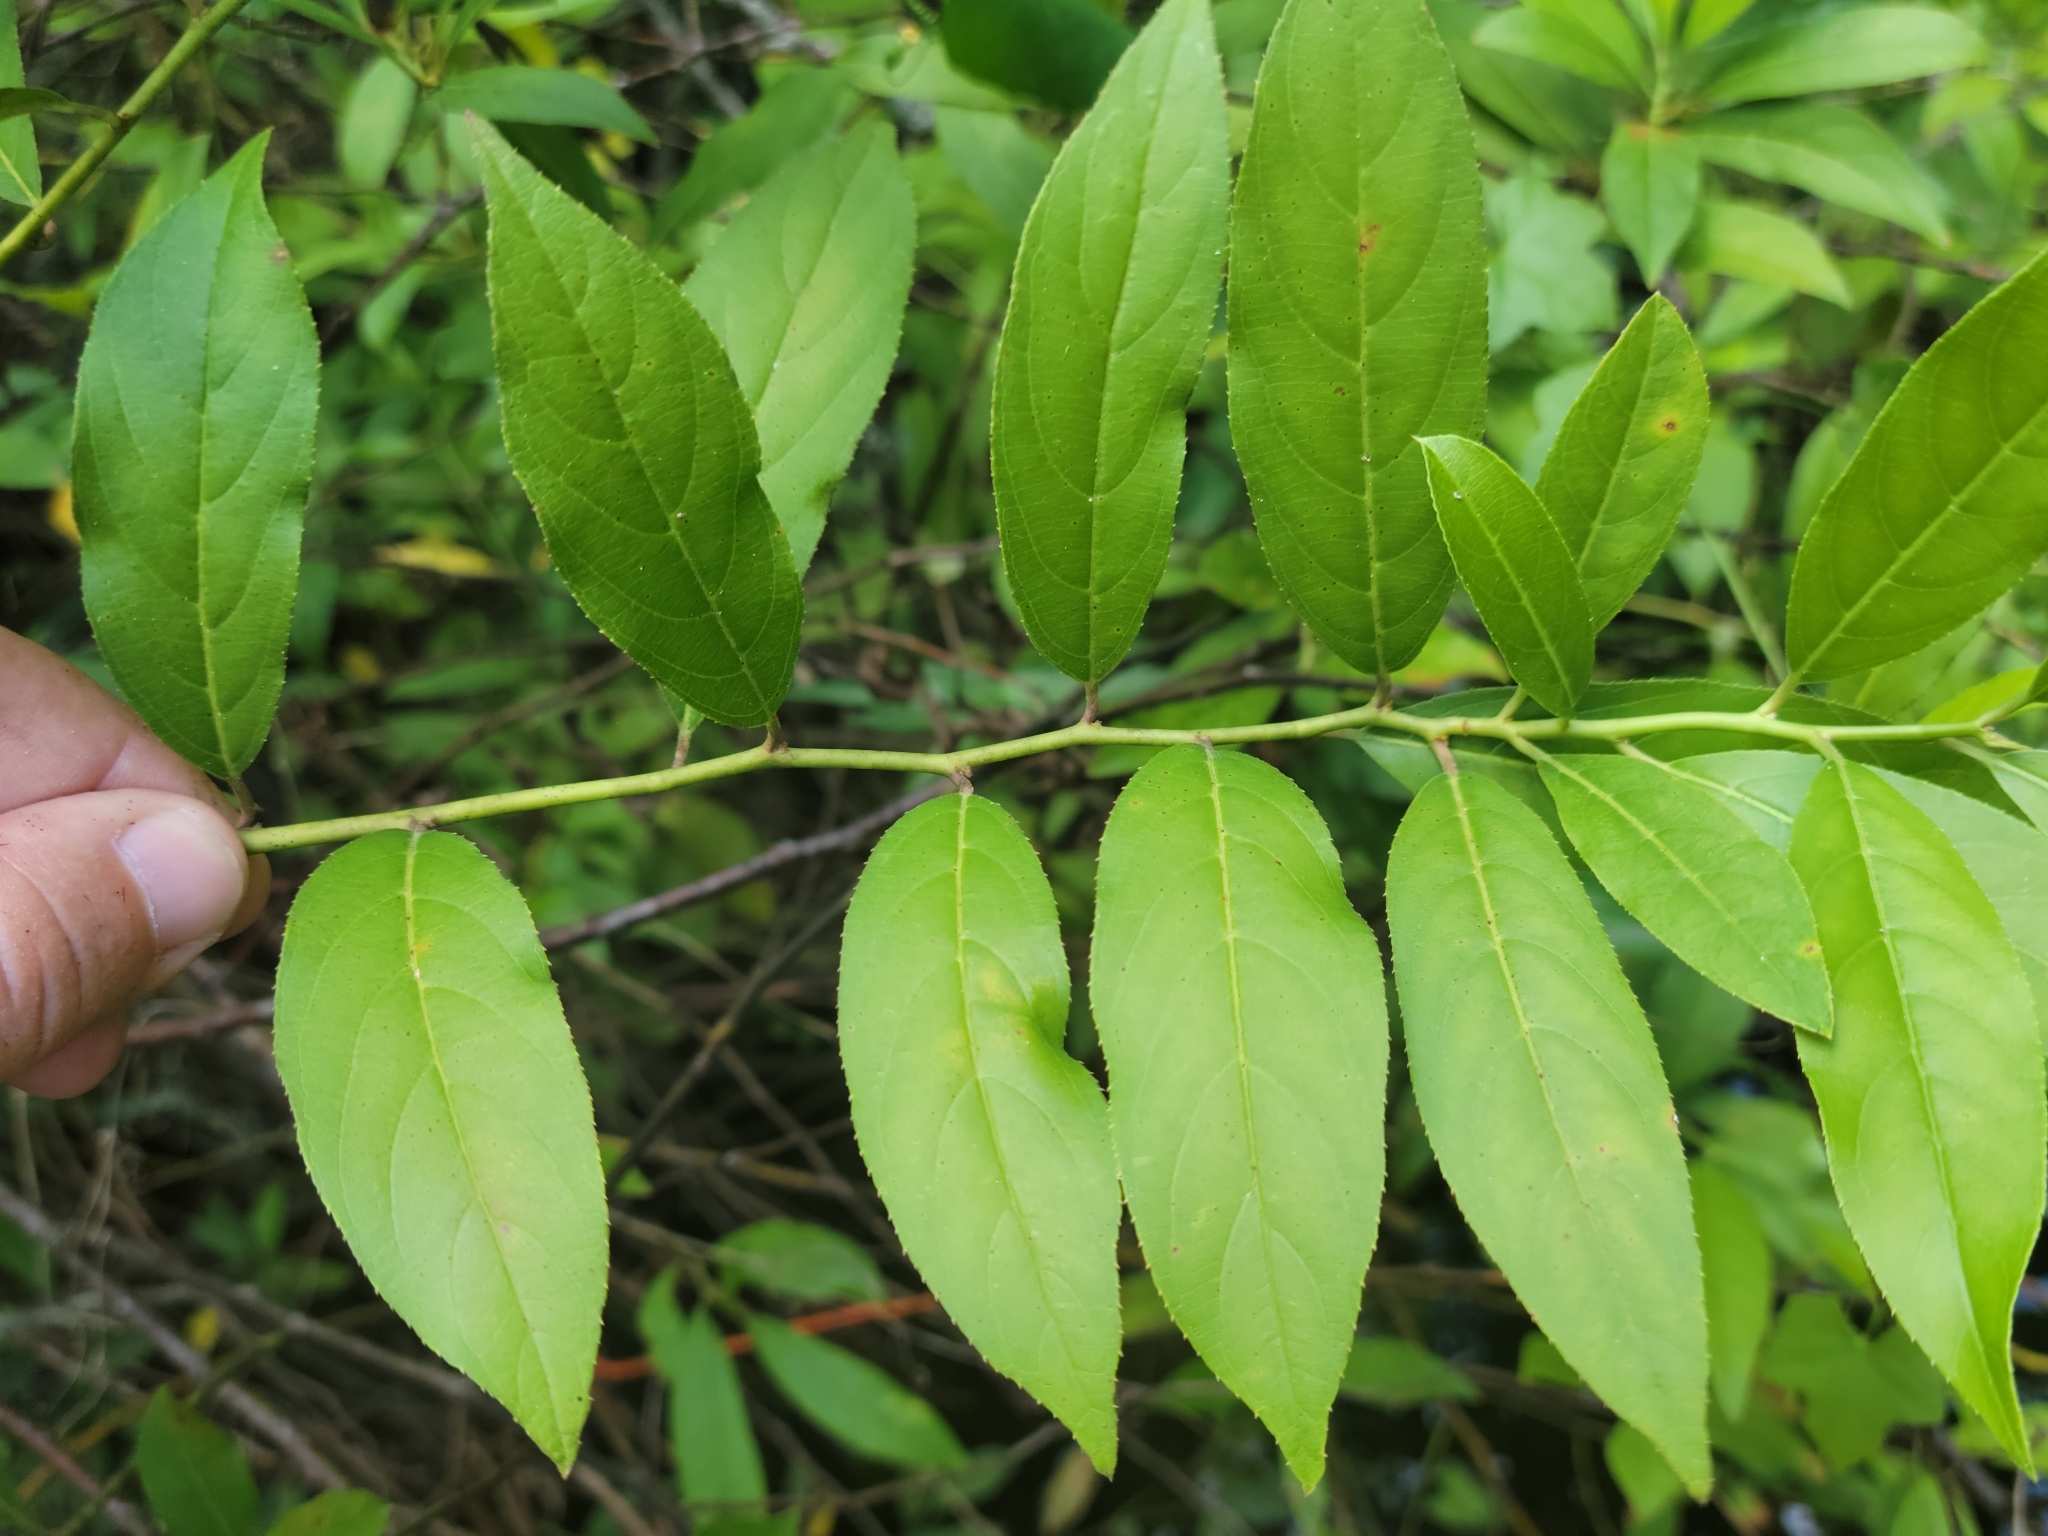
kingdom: Plantae
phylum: Tracheophyta
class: Magnoliopsida
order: Saxifragales
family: Iteaceae
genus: Itea
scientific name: Itea virginica
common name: Sweetspire
